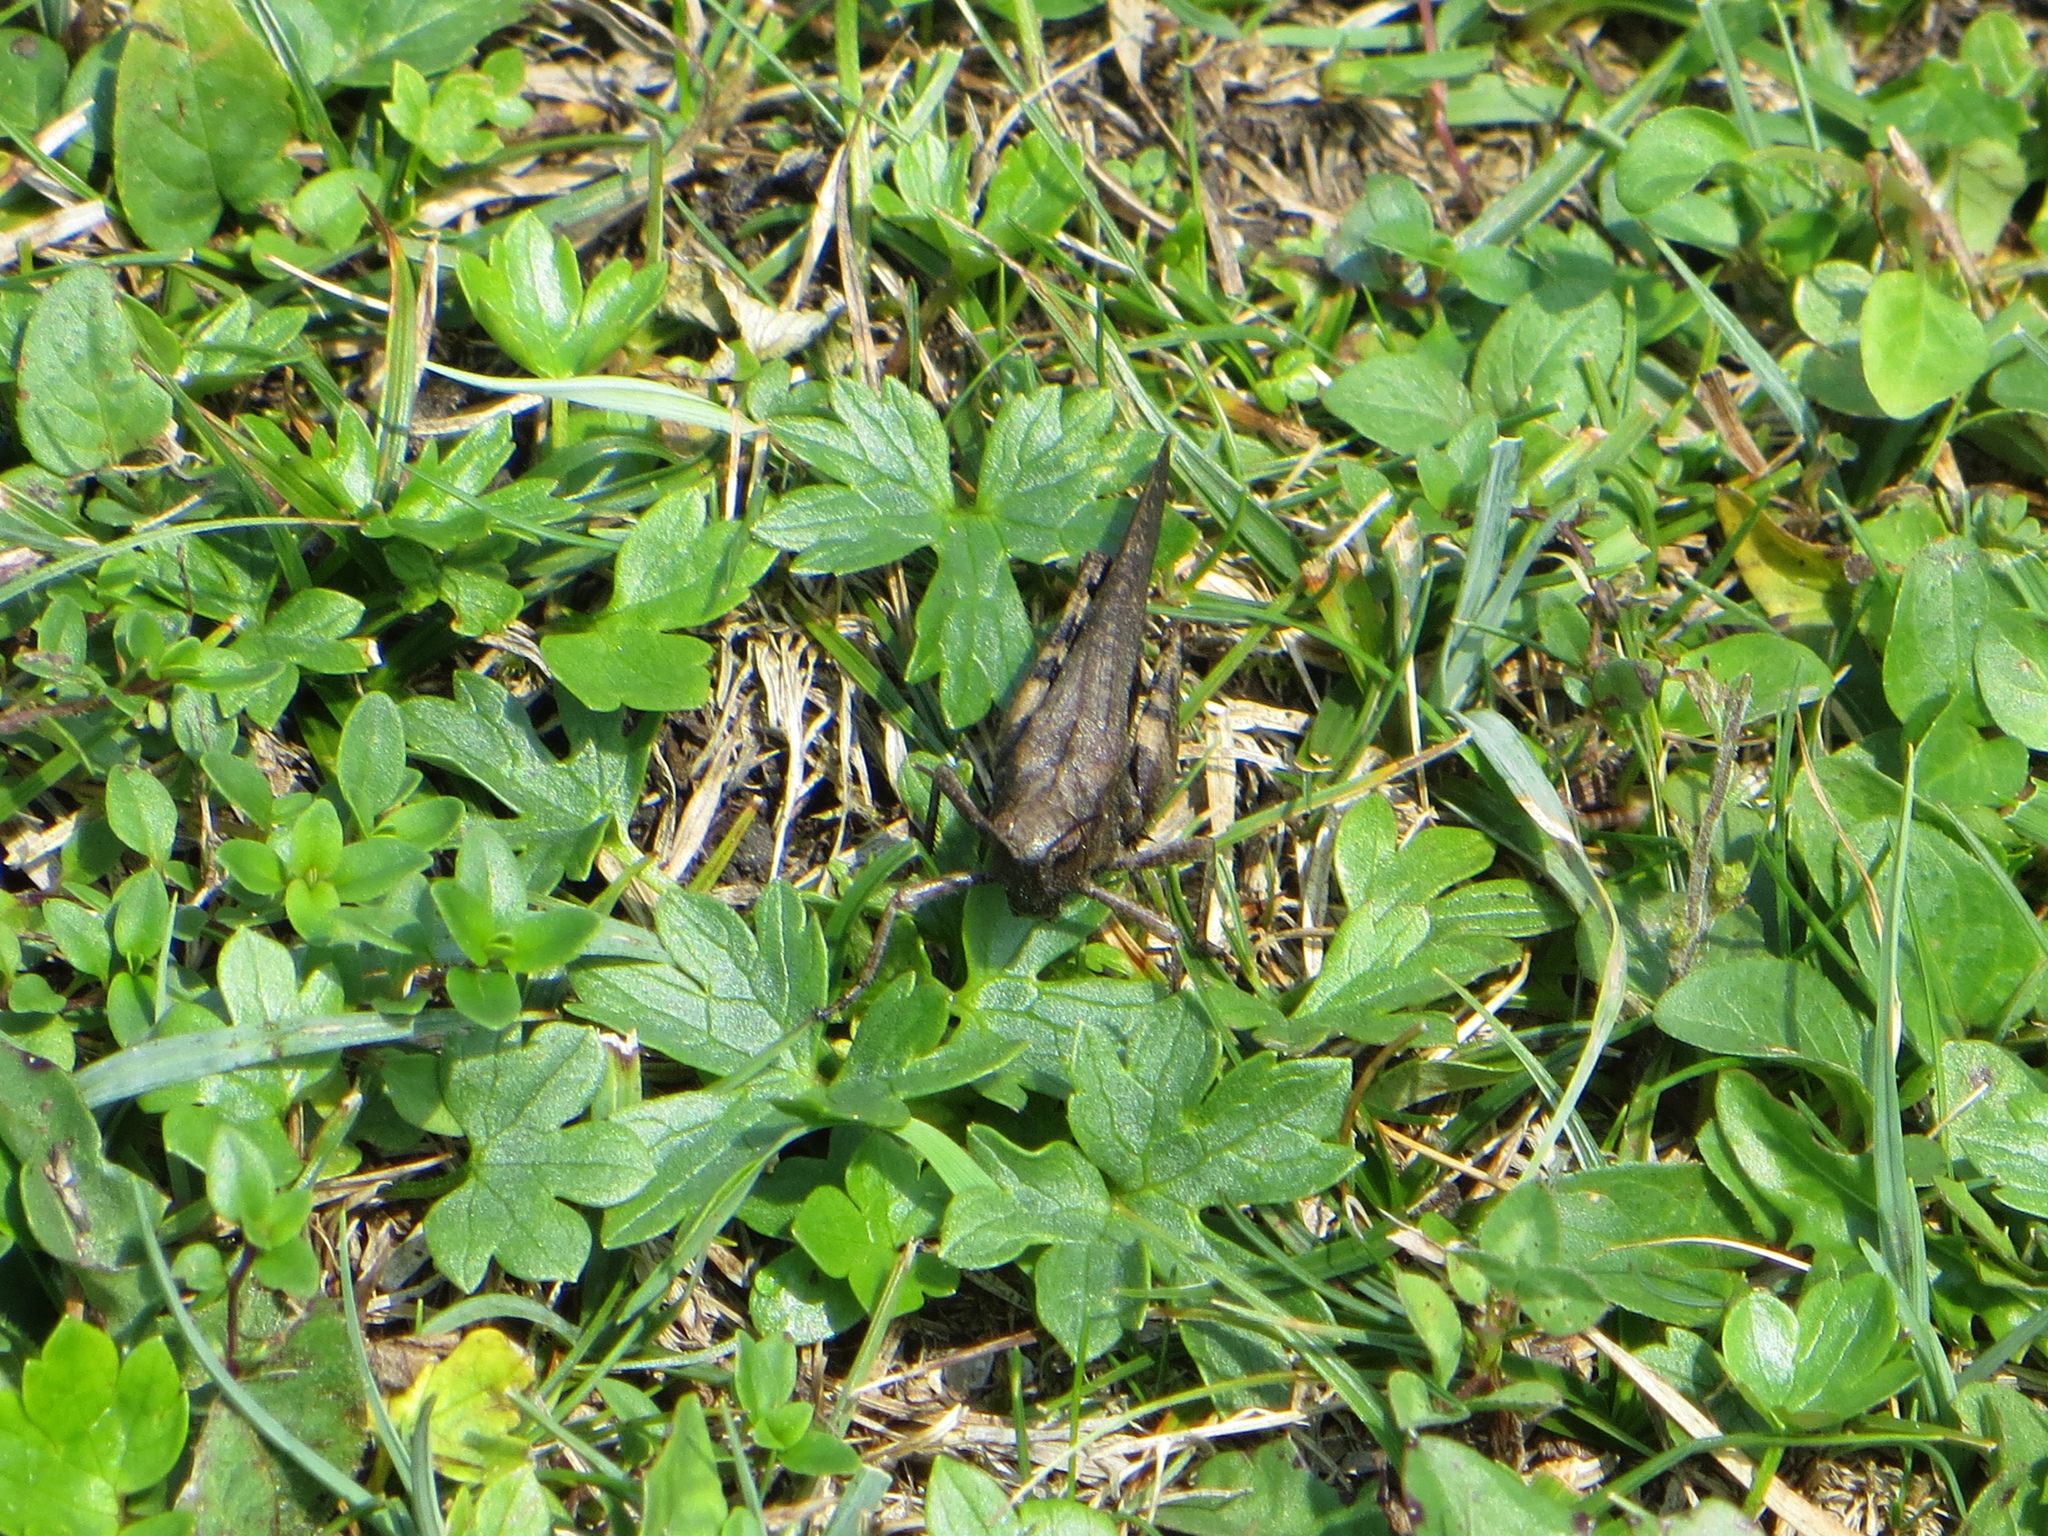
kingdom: Animalia
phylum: Arthropoda
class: Insecta
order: Orthoptera
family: Acrididae
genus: Psophus
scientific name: Psophus stridulus
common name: Rattle grasshopper
